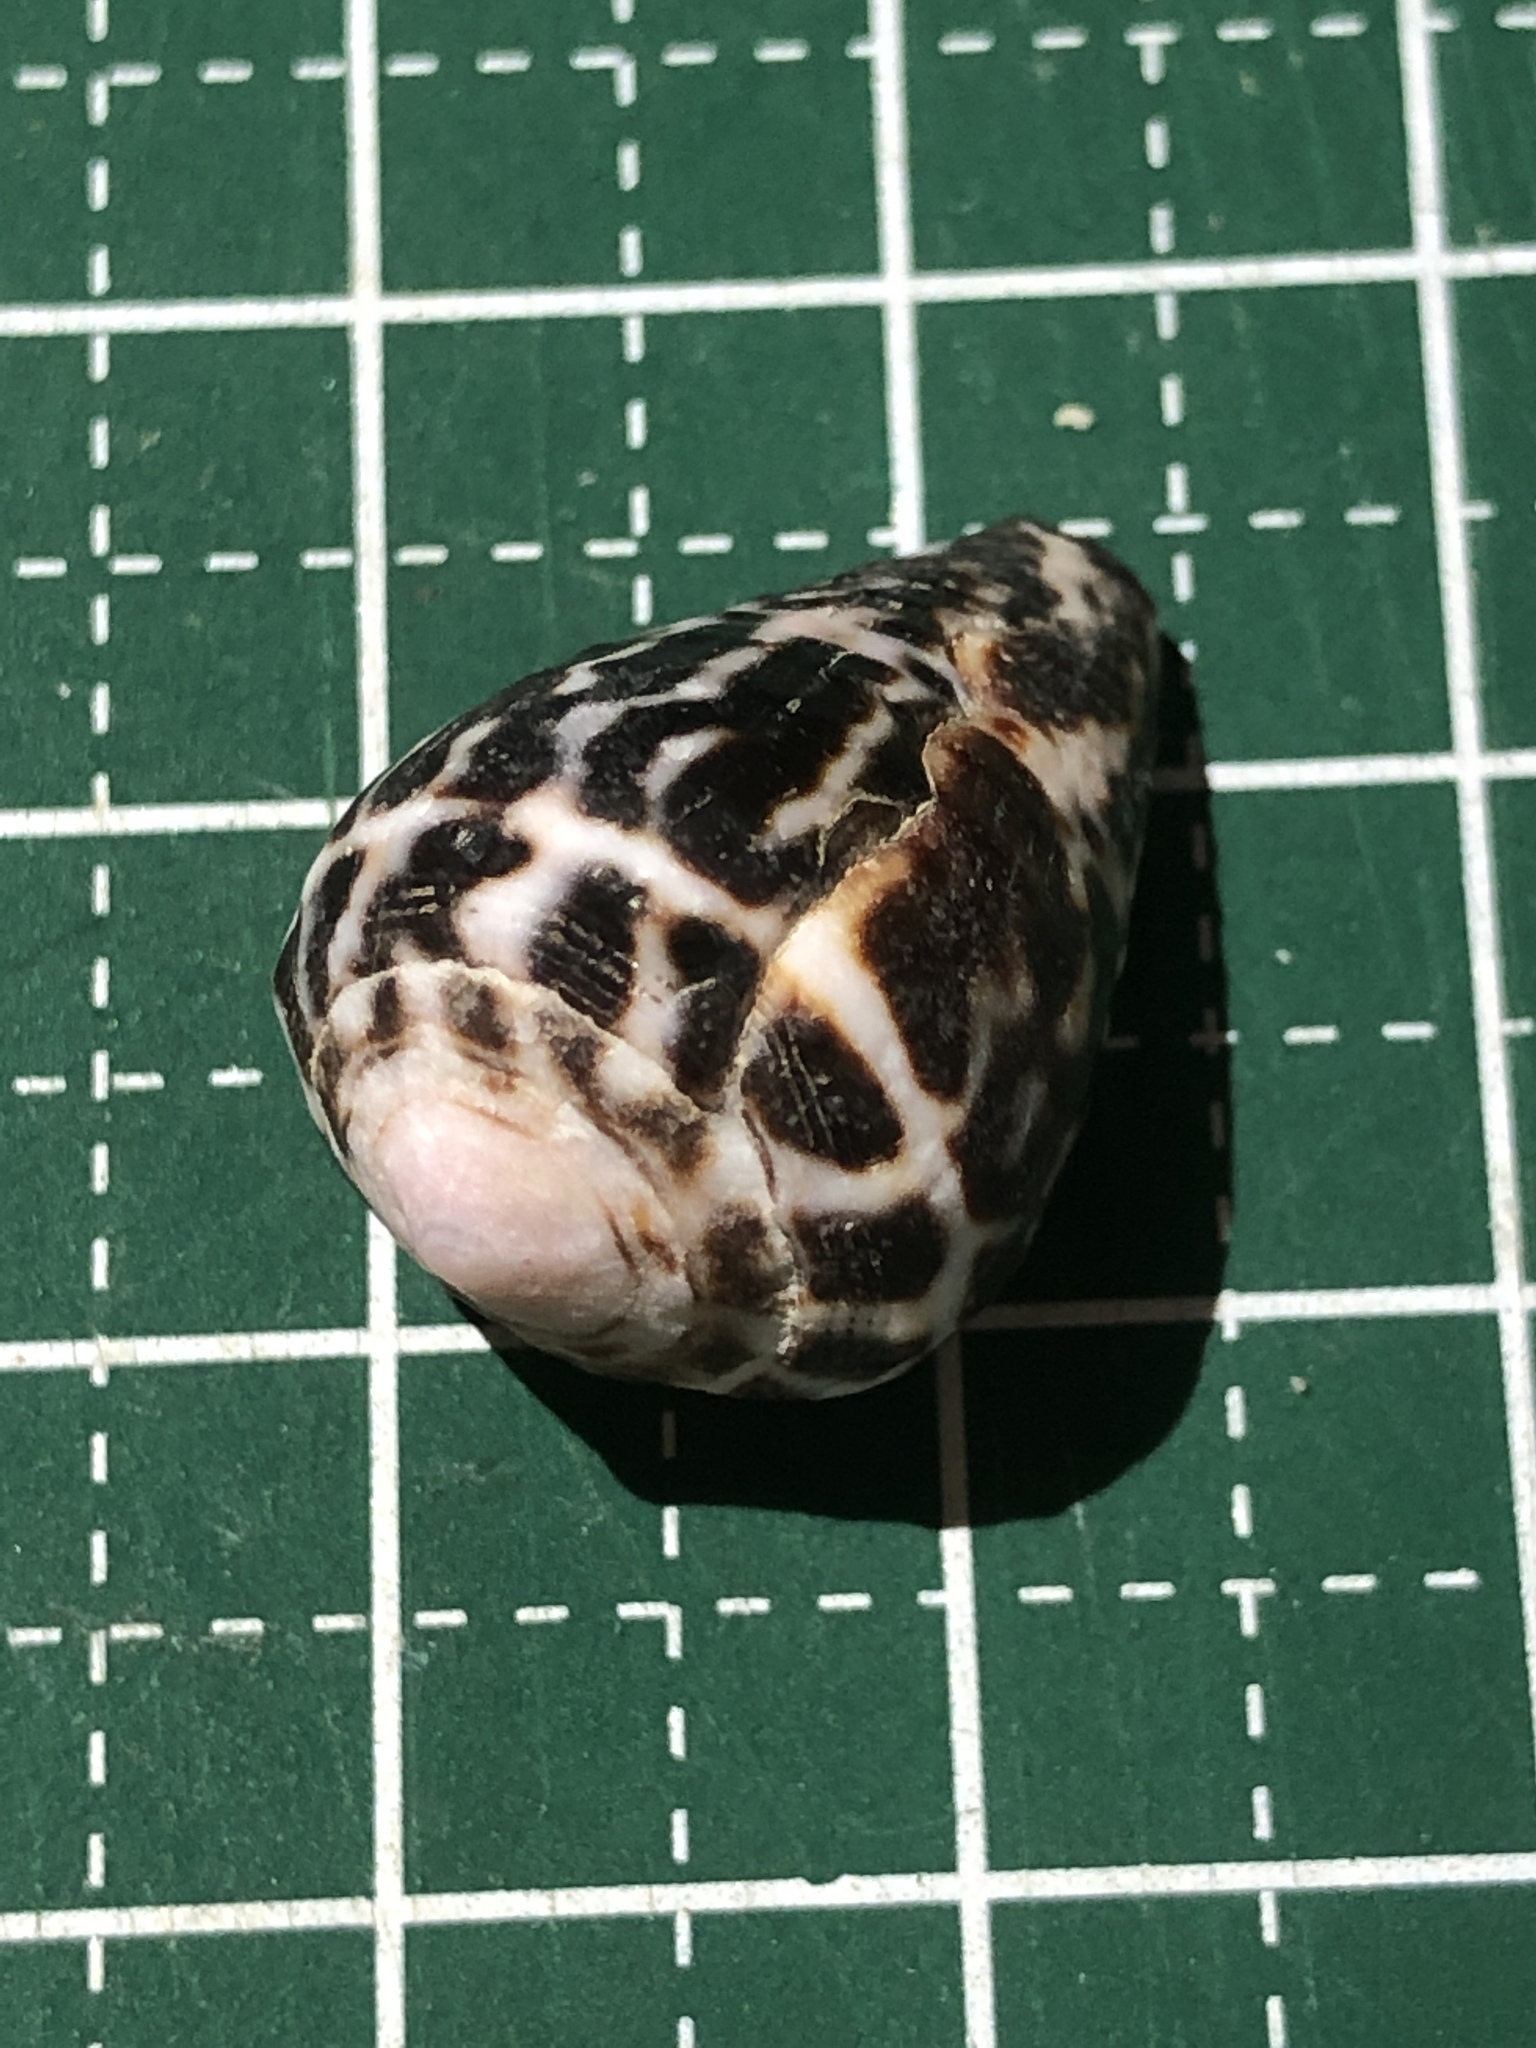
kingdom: Animalia
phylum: Mollusca
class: Gastropoda
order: Neogastropoda
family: Conidae
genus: Conus
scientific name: Conus chaldaeus
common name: Astrologer's cone
